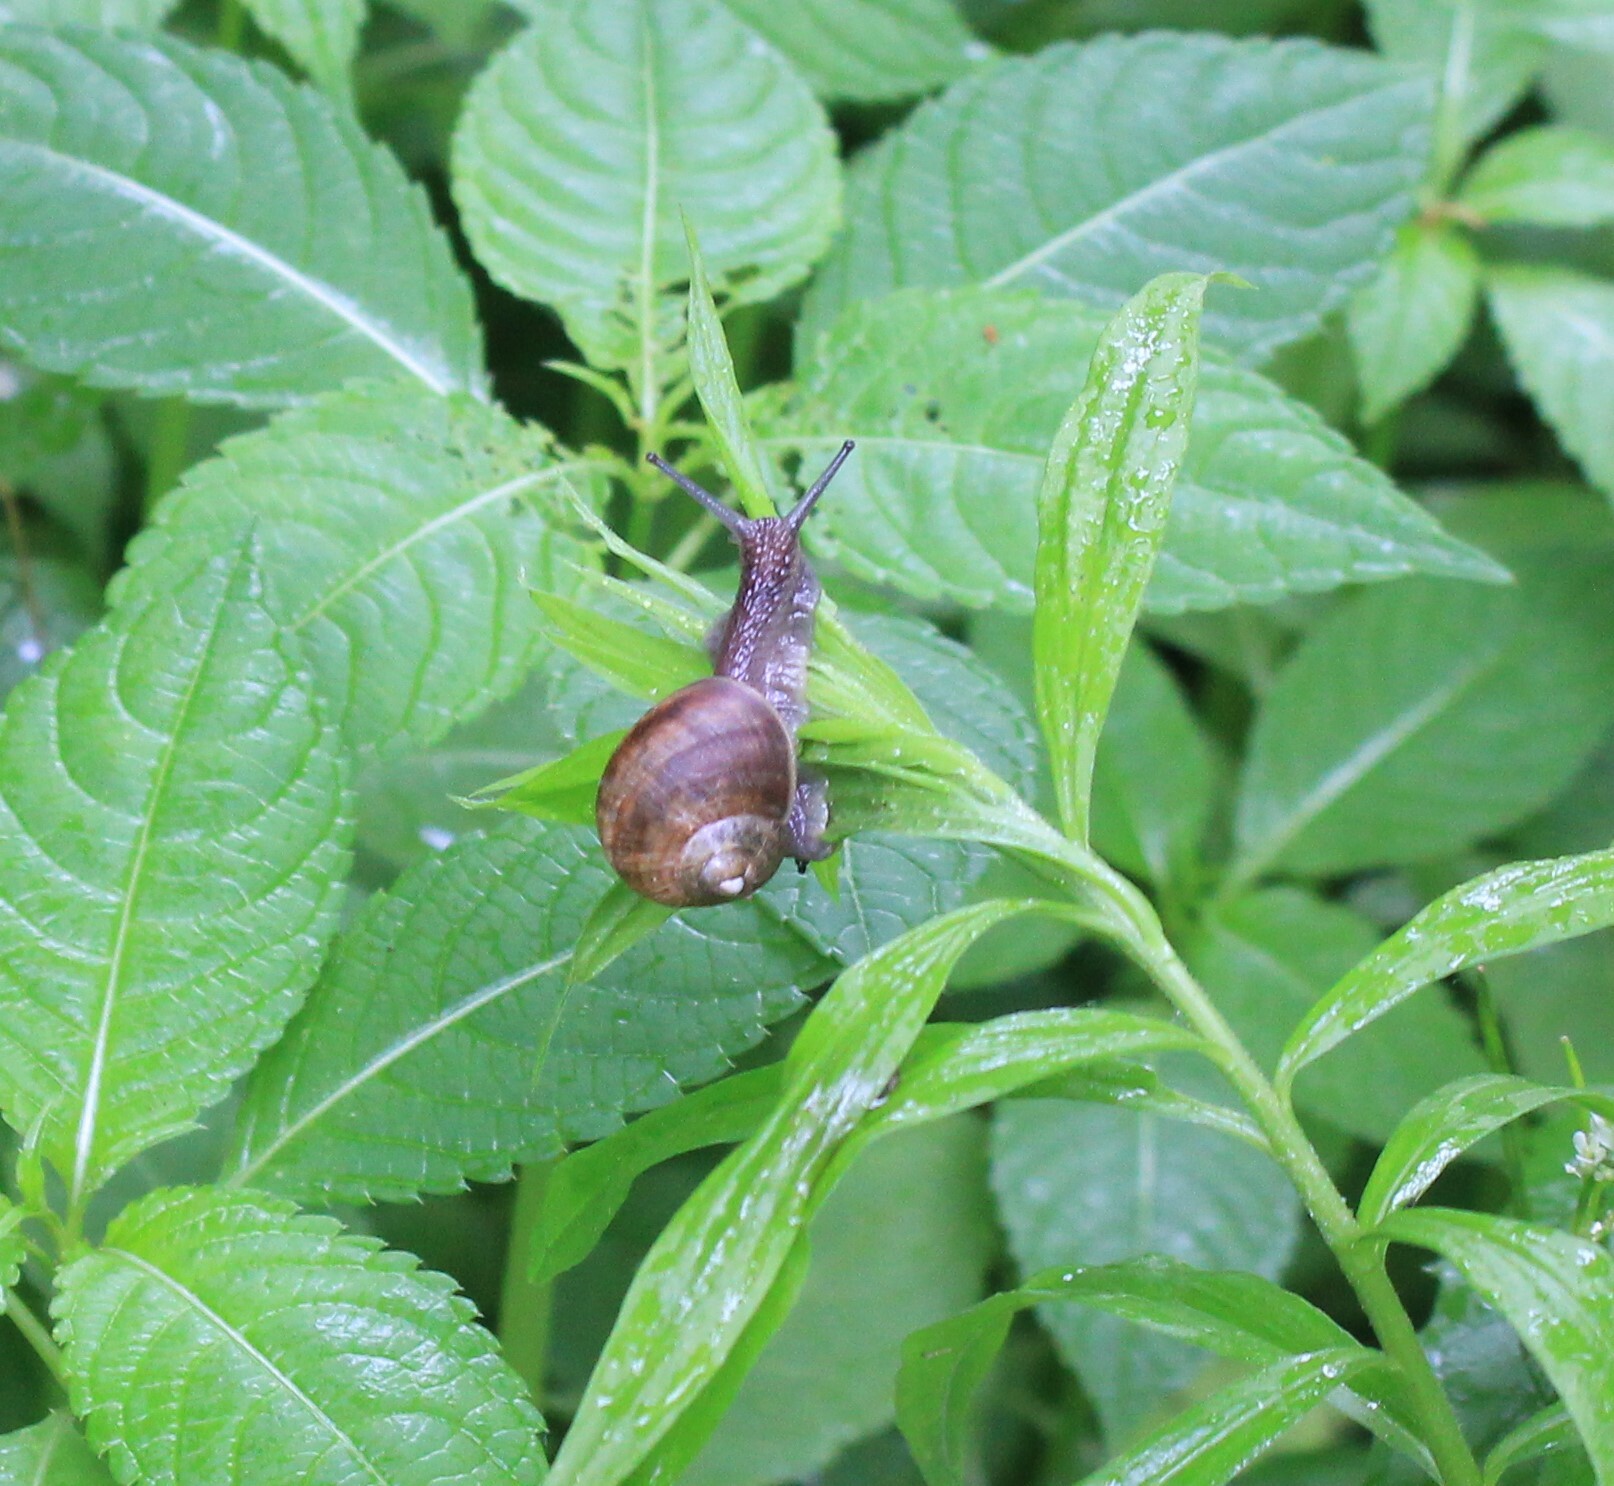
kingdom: Animalia
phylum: Mollusca
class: Gastropoda
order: Stylommatophora
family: Helicidae
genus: Helix
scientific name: Helix pomatia
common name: Roman snail
